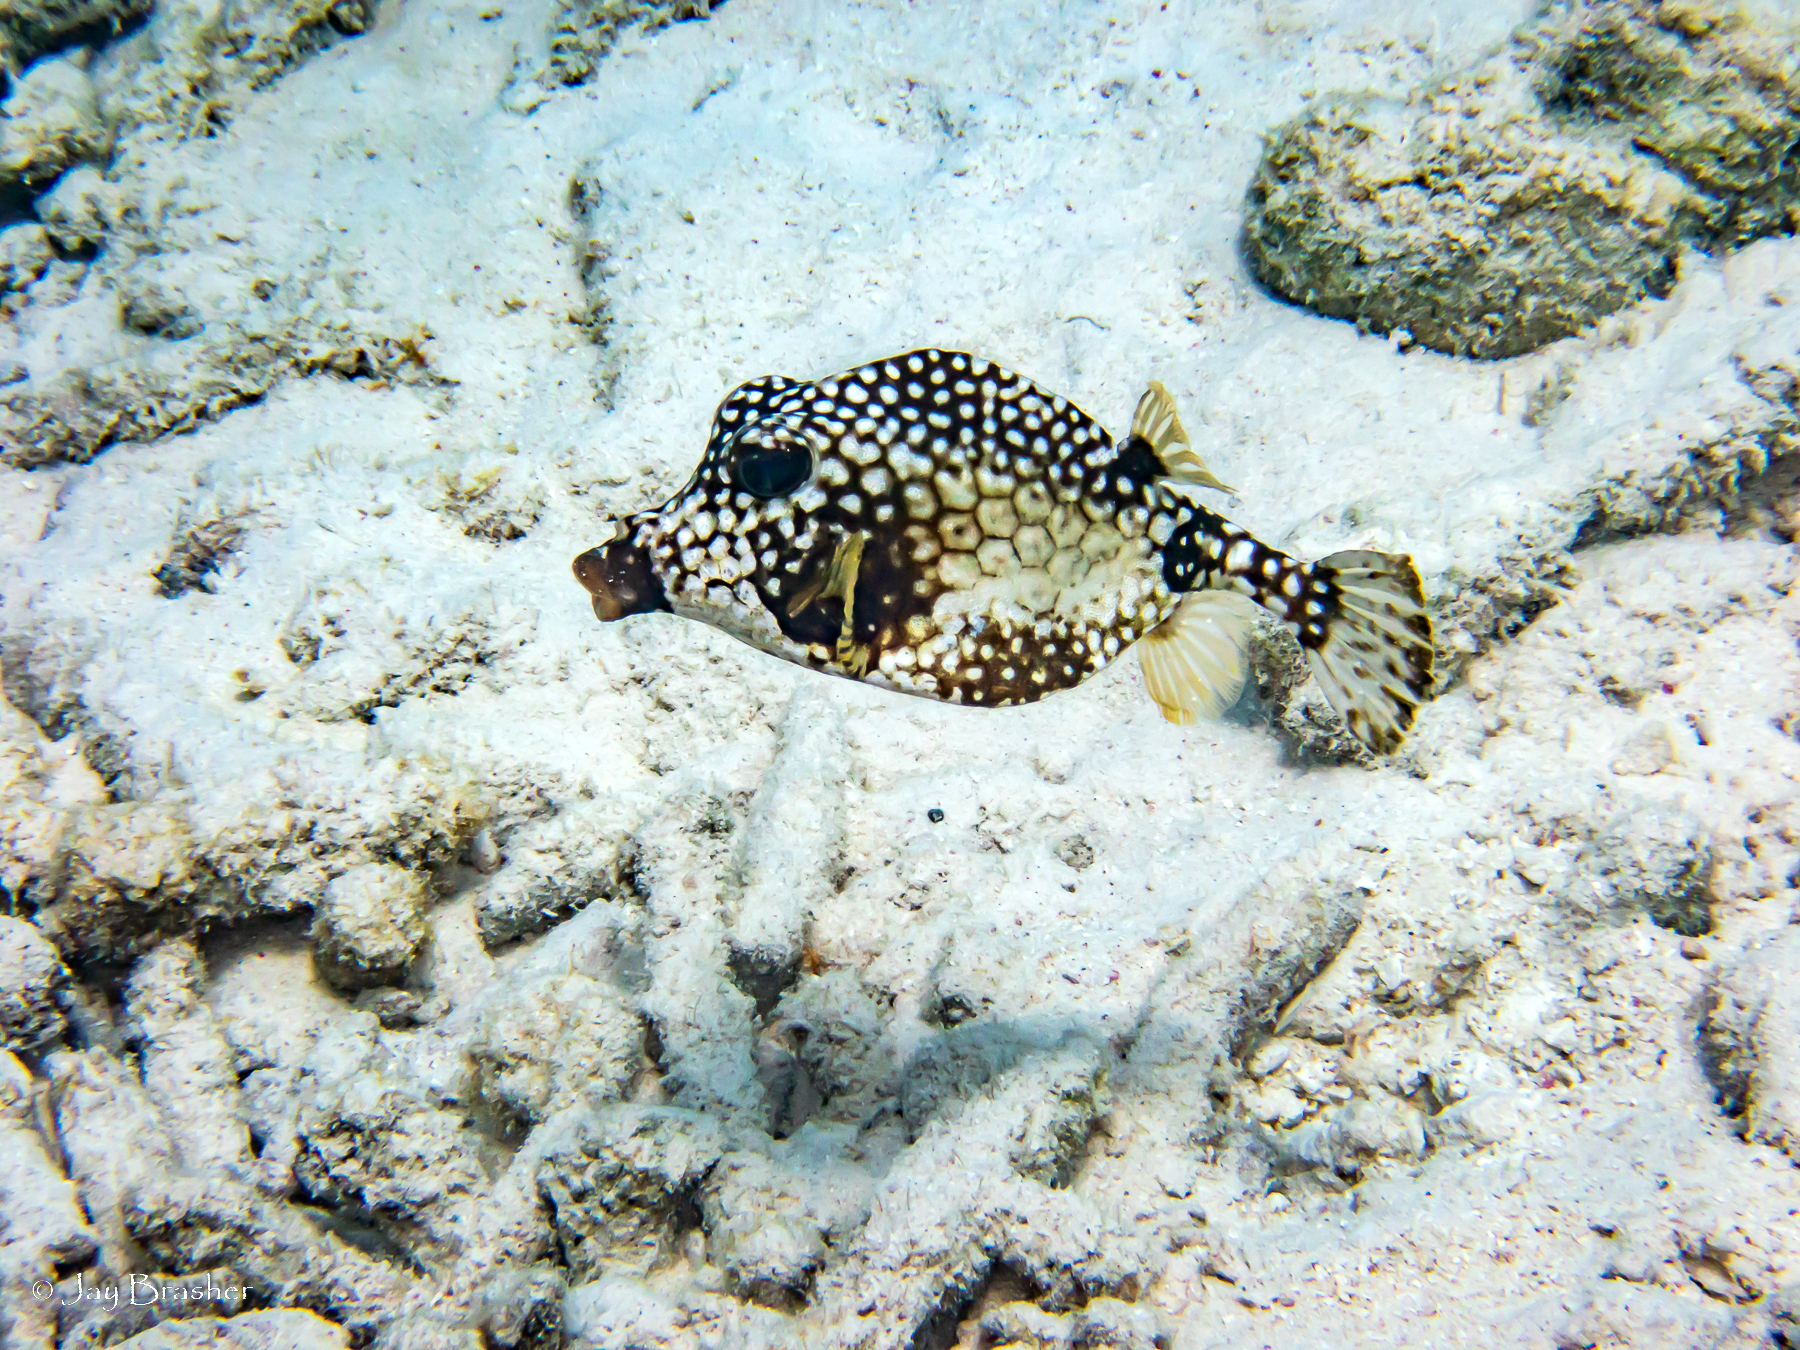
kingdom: Animalia
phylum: Chordata
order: Tetraodontiformes
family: Ostraciidae
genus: Lactophrys
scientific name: Lactophrys triqueter
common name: Smooth trunkfish
